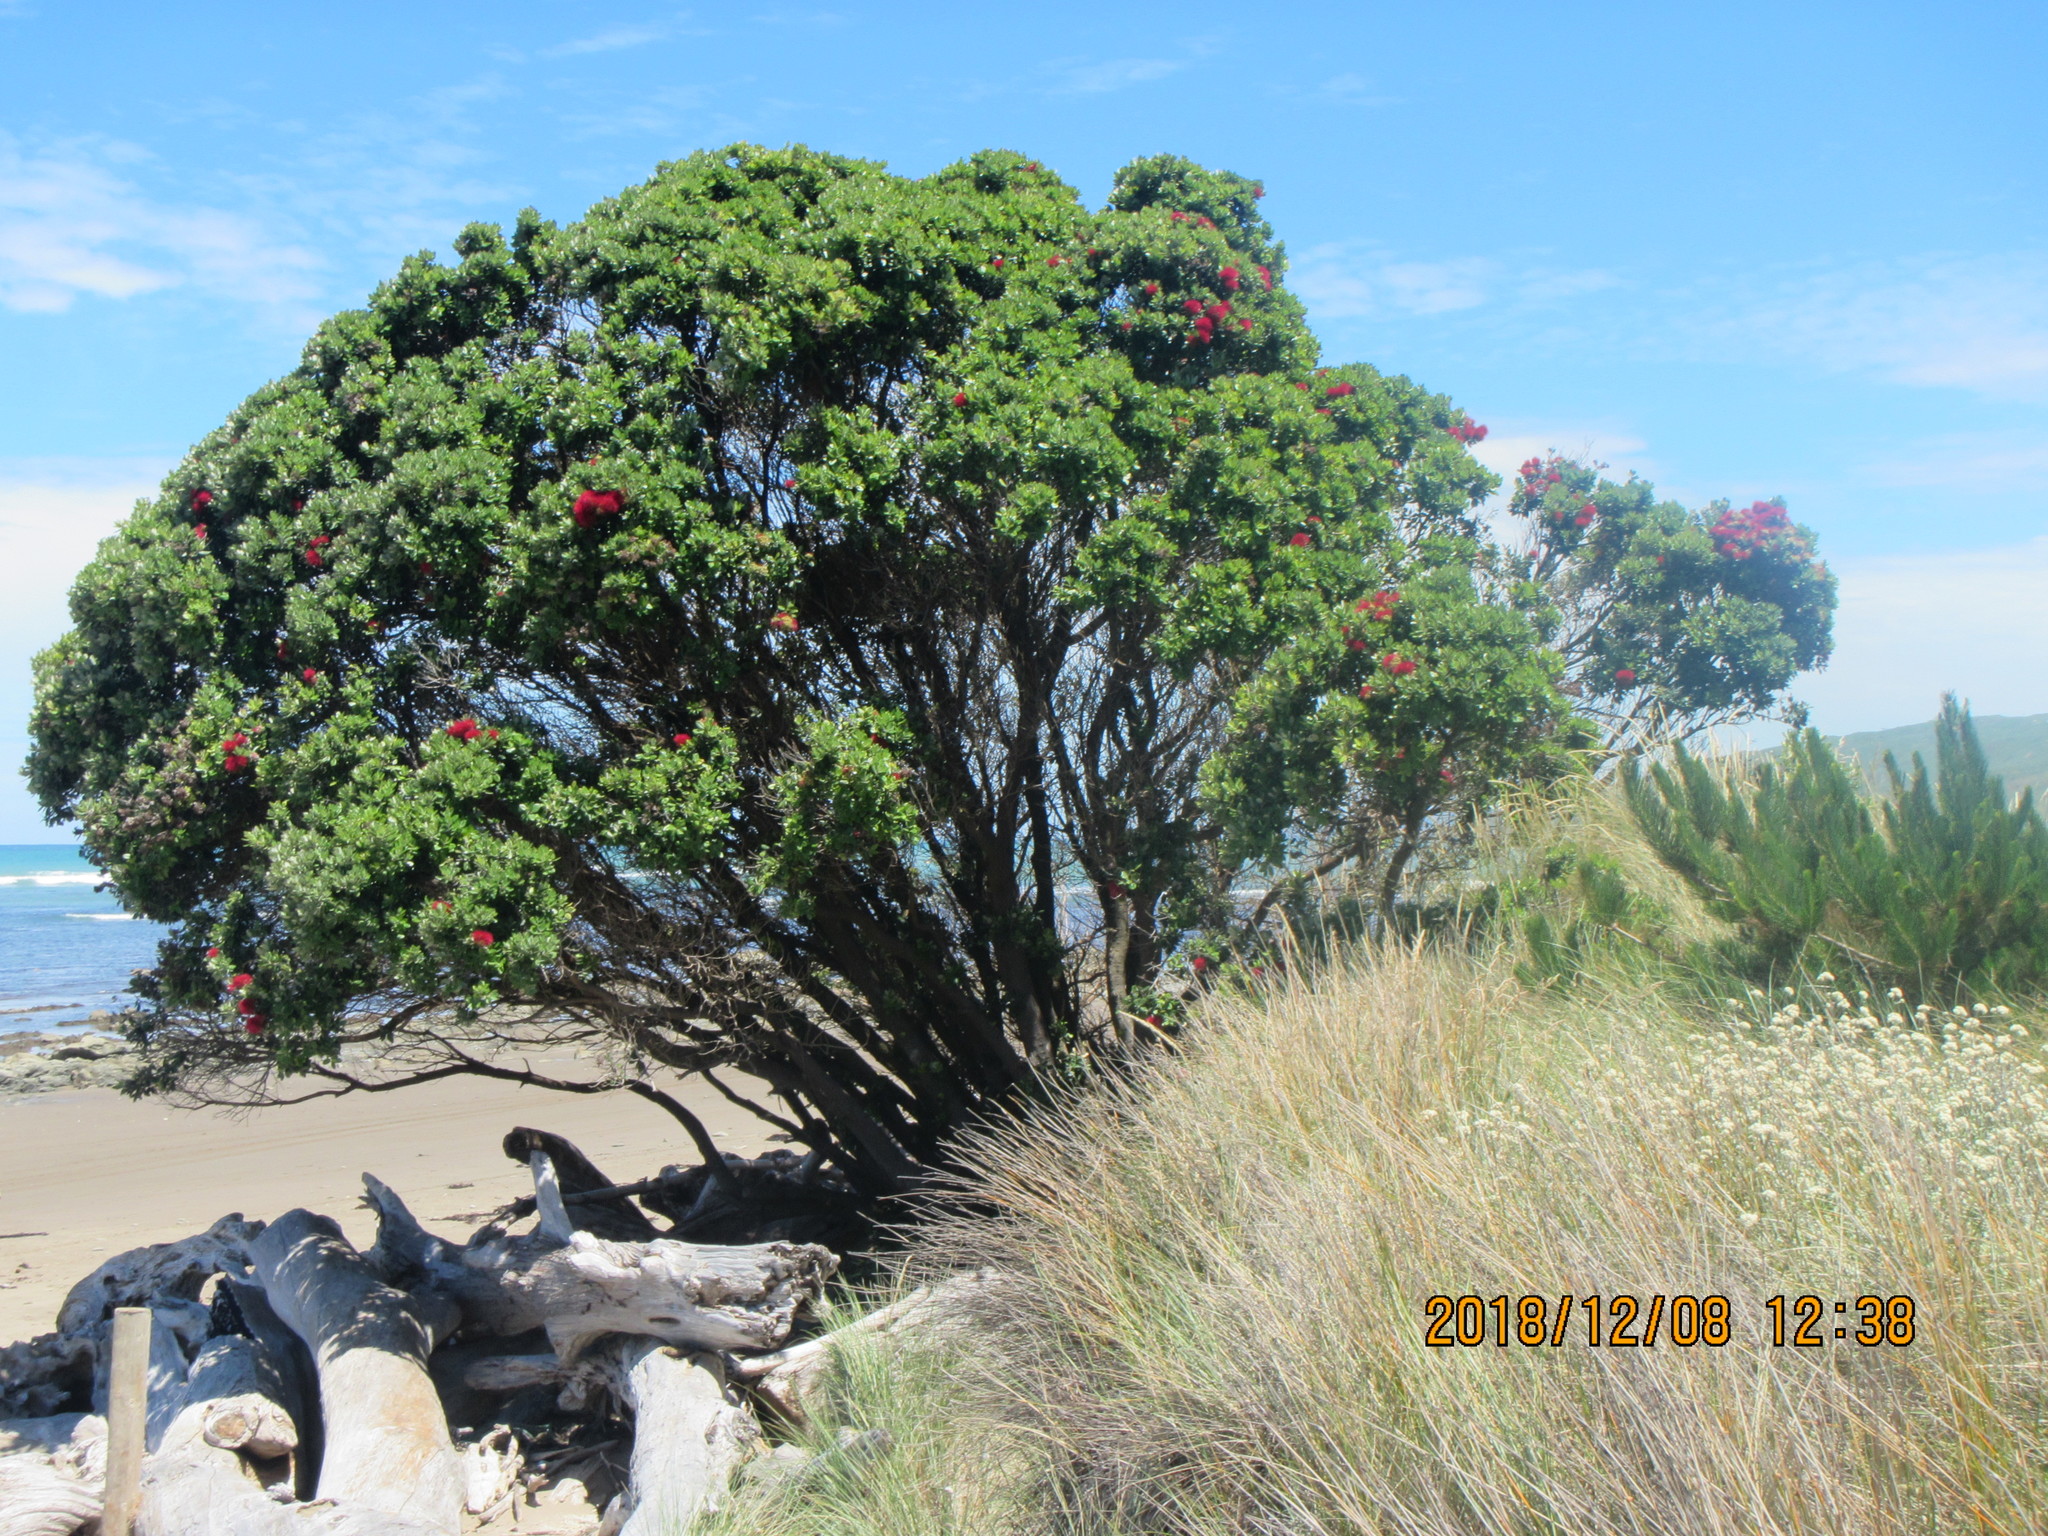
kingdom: Plantae
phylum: Tracheophyta
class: Magnoliopsida
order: Myrtales
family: Myrtaceae
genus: Metrosideros
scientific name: Metrosideros excelsa
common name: New zealand christmastree
